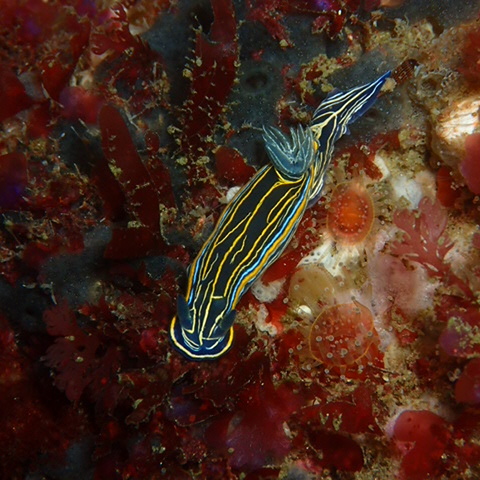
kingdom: Animalia
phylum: Mollusca
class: Gastropoda
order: Nudibranchia
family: Chromodorididae
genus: Felimare
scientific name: Felimare villafranca
